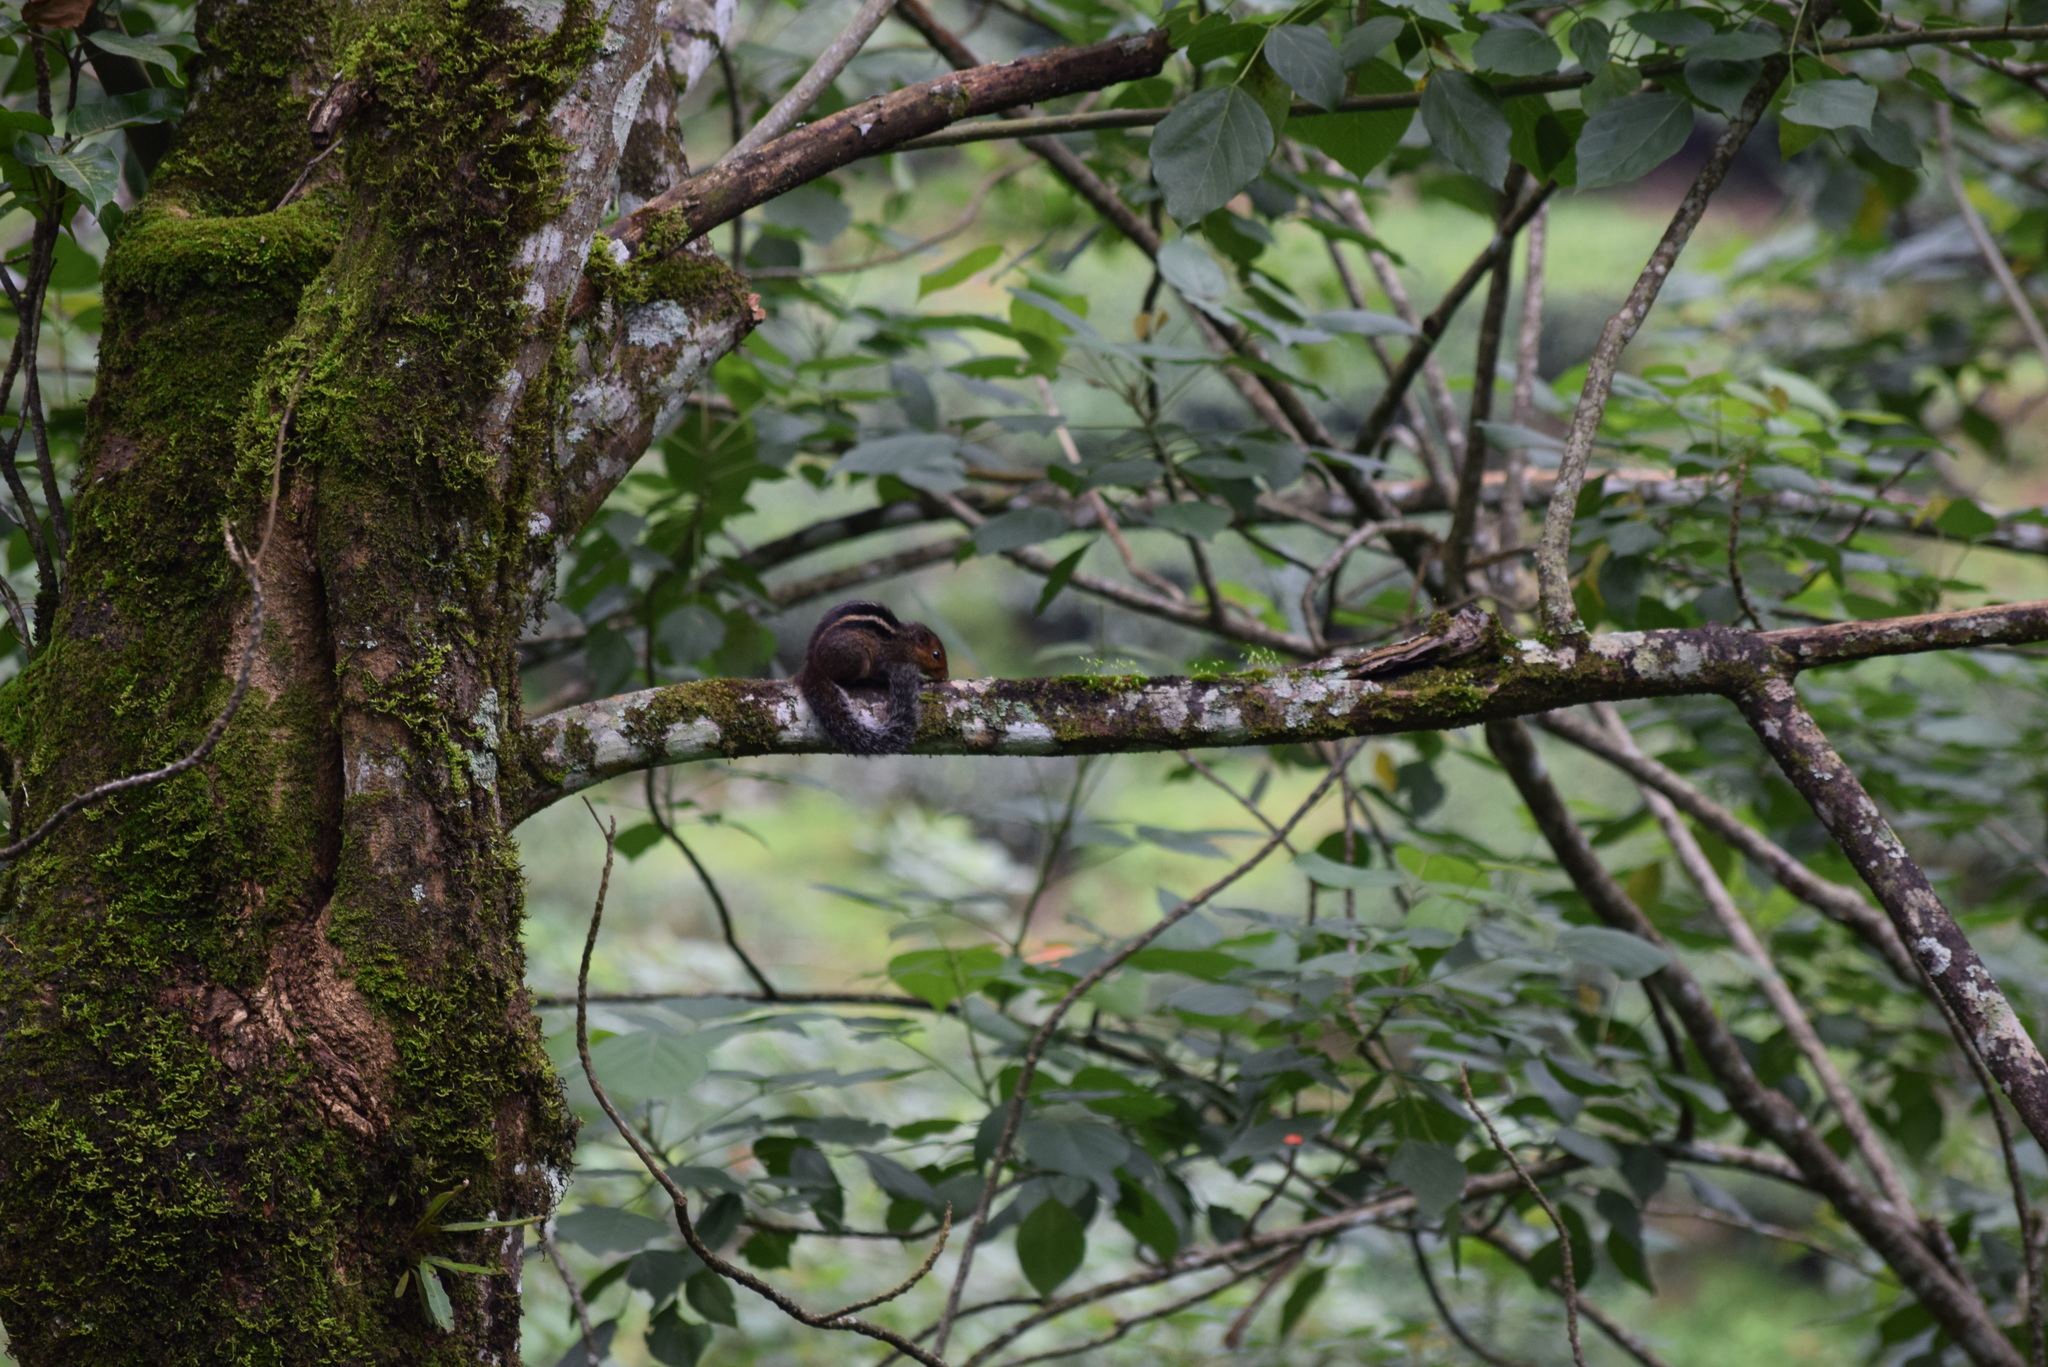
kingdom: Animalia
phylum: Chordata
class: Mammalia
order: Rodentia
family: Sciuridae
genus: Funambulus
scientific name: Funambulus tristriatus
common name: Jungle palm squirrel
